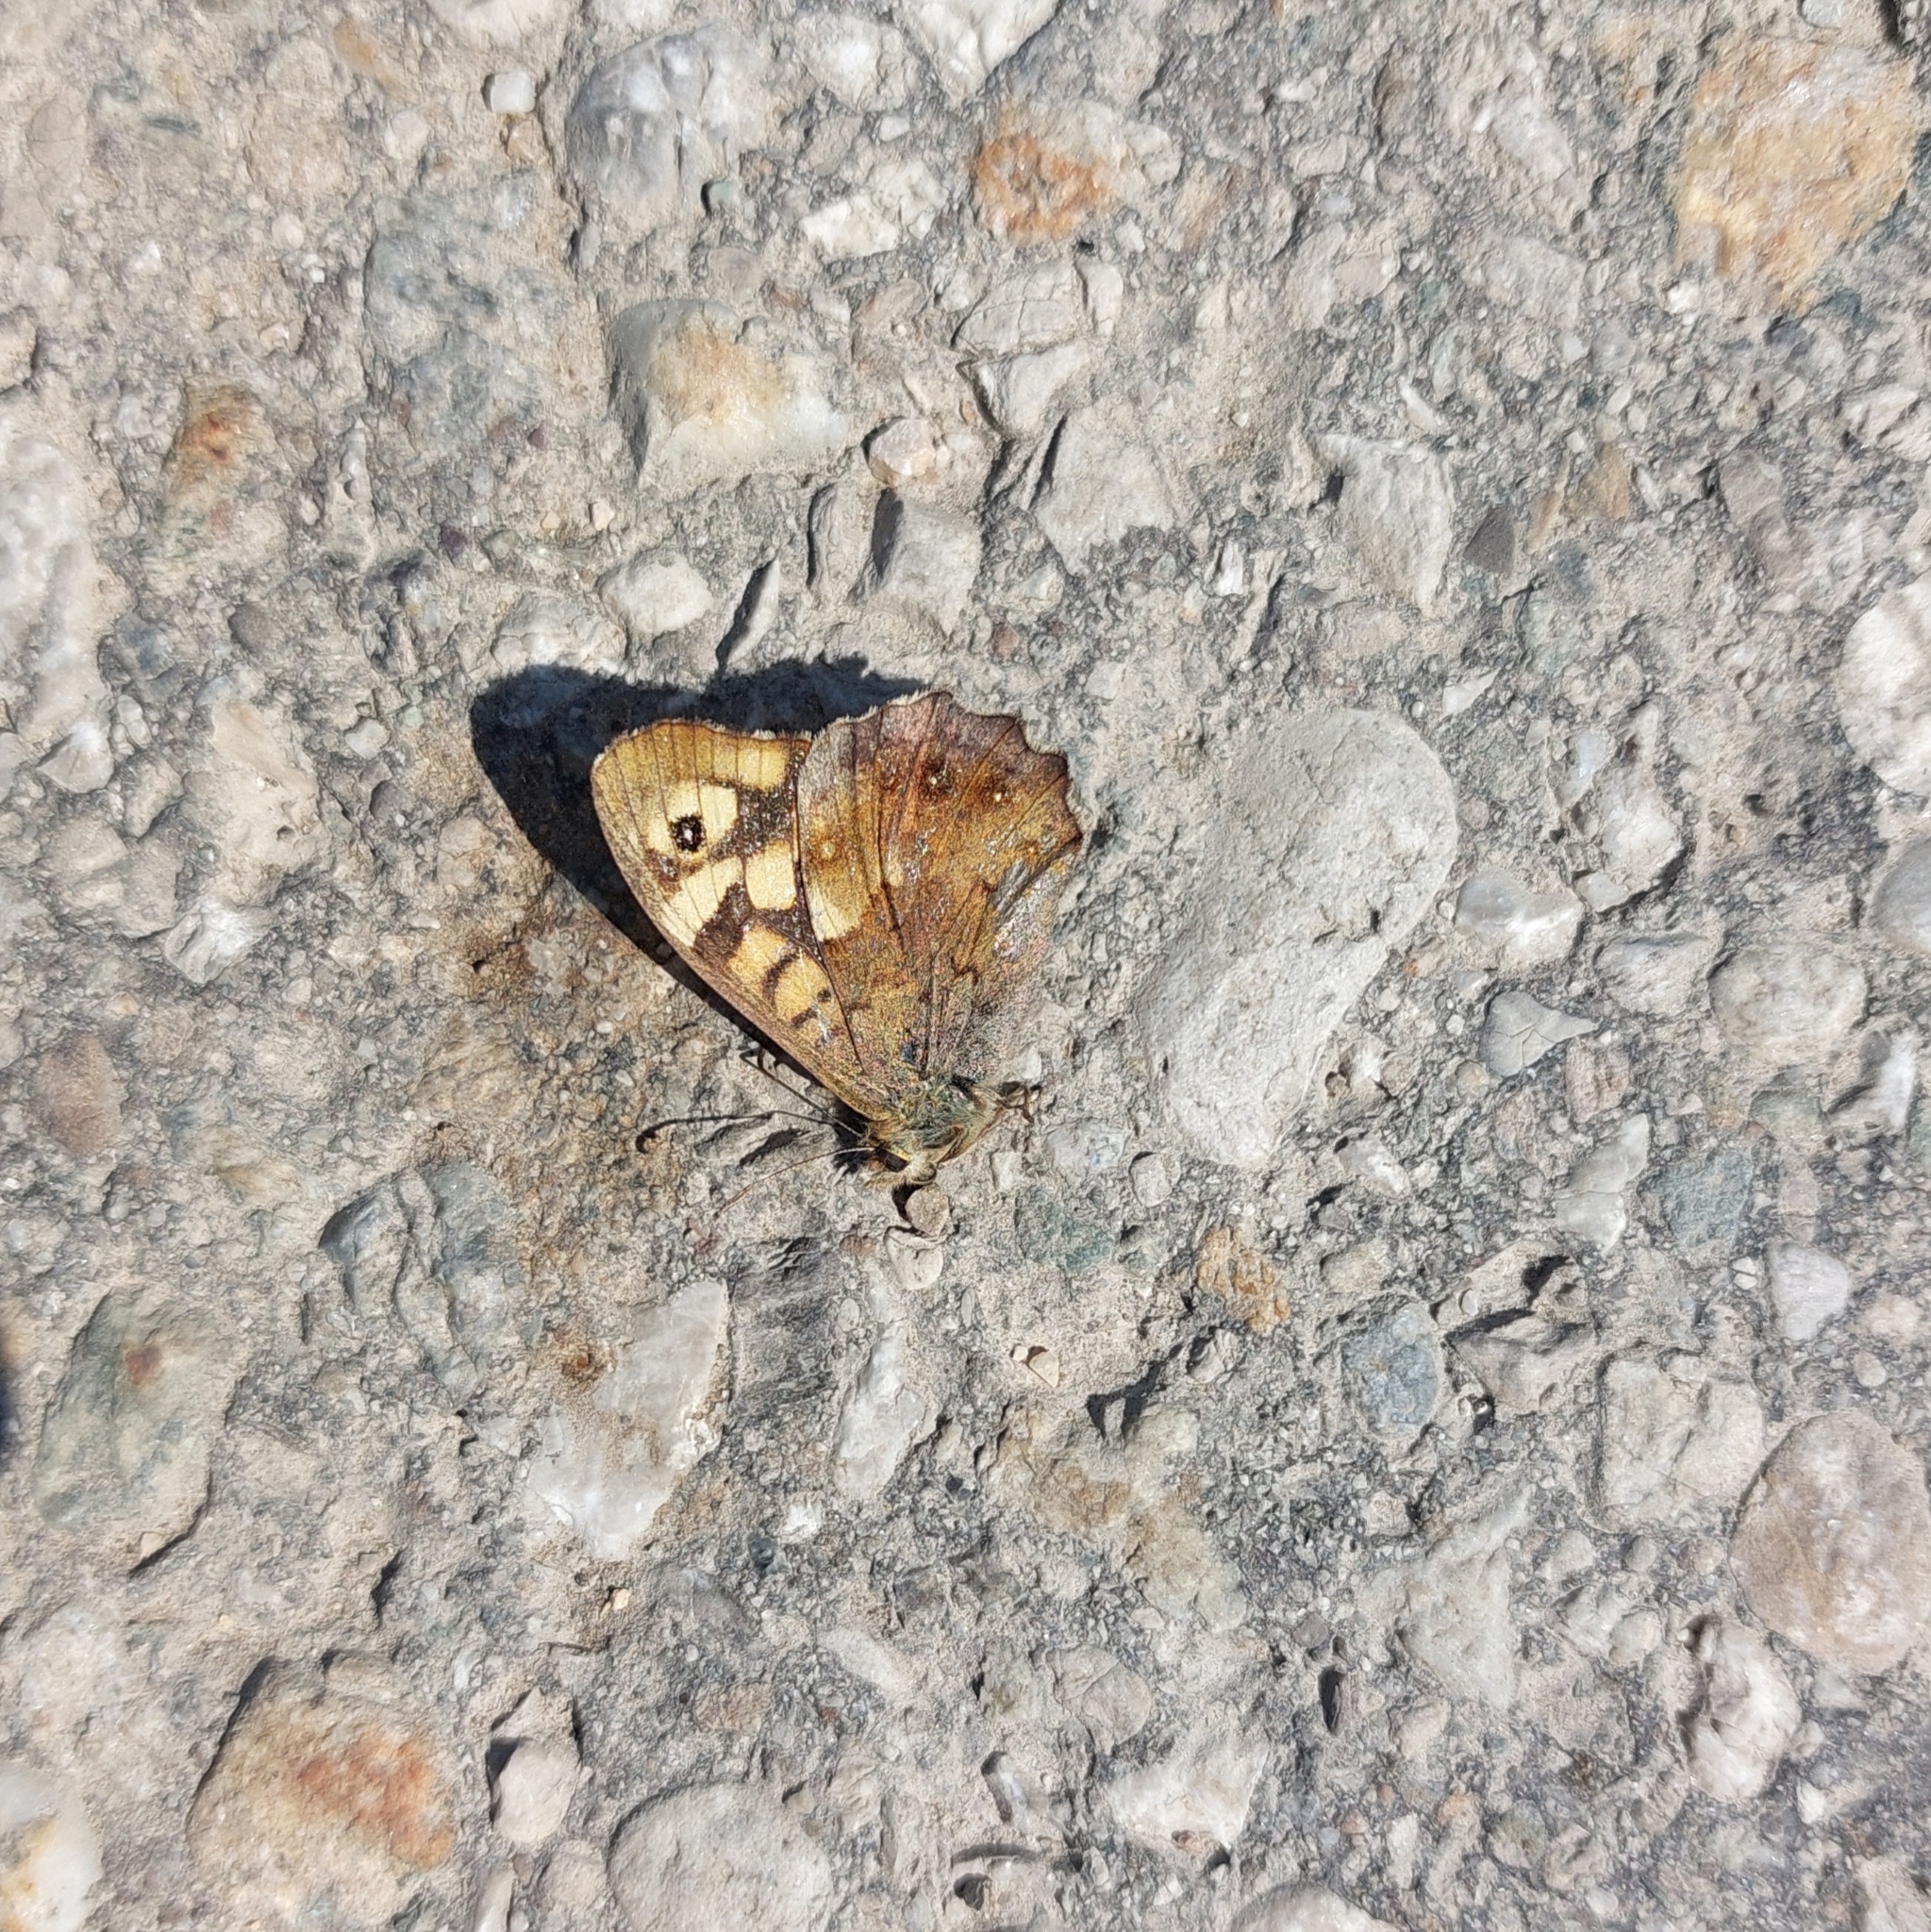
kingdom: Animalia
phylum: Arthropoda
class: Insecta
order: Lepidoptera
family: Nymphalidae
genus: Pararge
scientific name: Pararge aegeria
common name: Speckled wood
